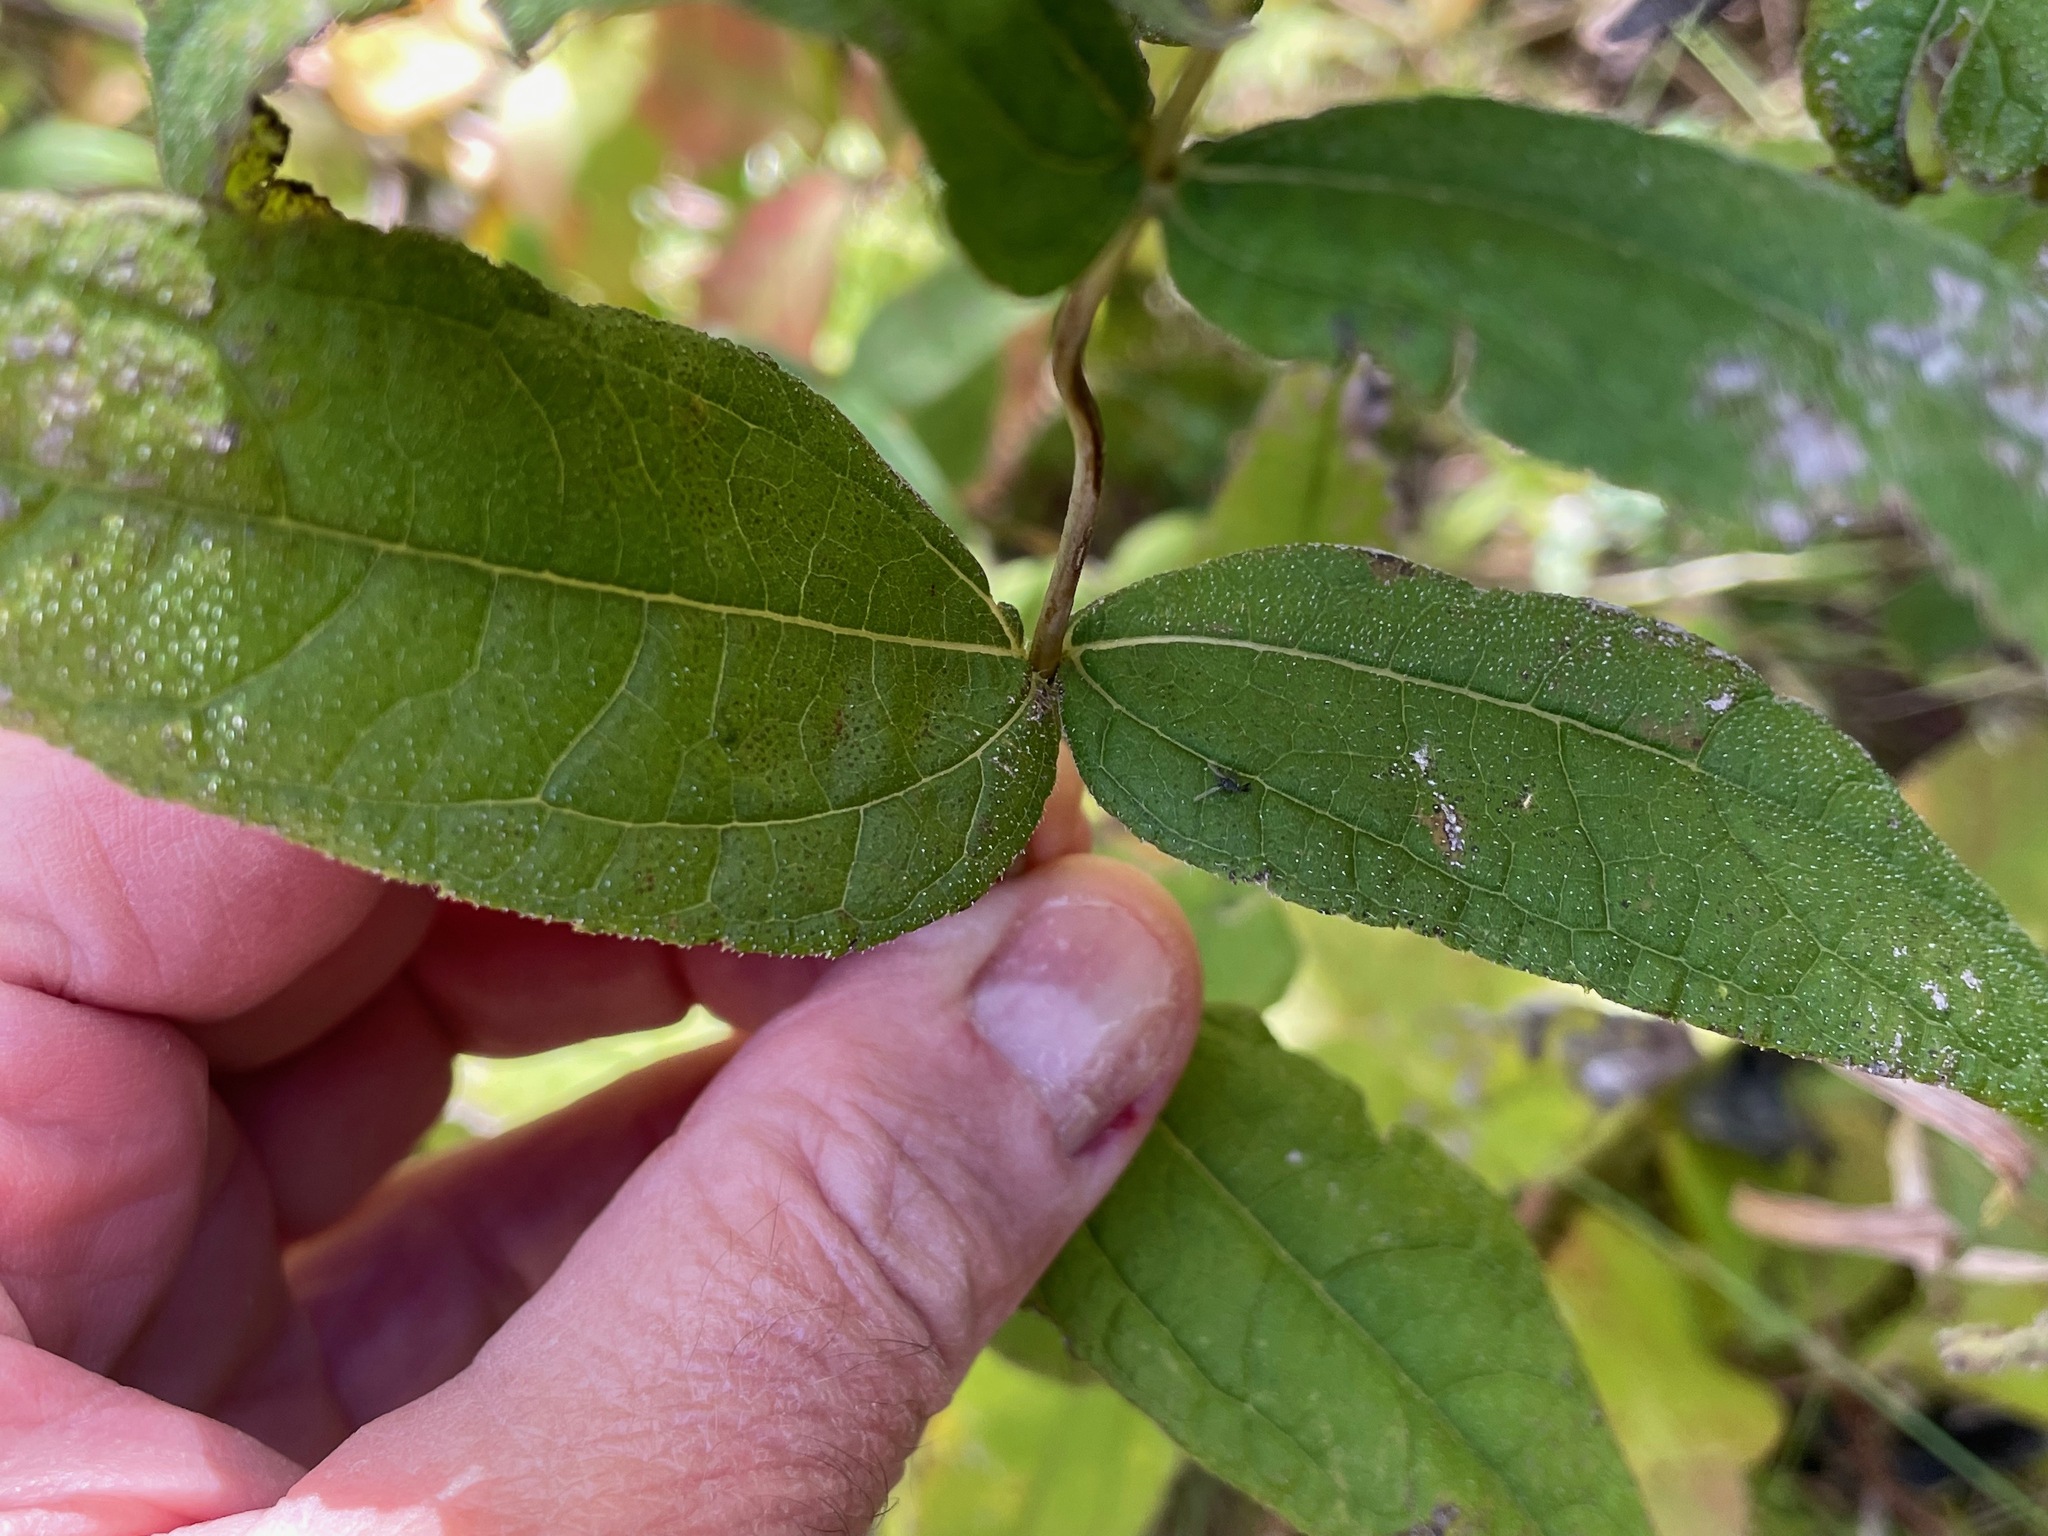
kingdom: Plantae
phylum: Tracheophyta
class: Magnoliopsida
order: Asterales
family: Asteraceae
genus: Helianthus
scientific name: Helianthus divaricatus
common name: Divergent sunflower
